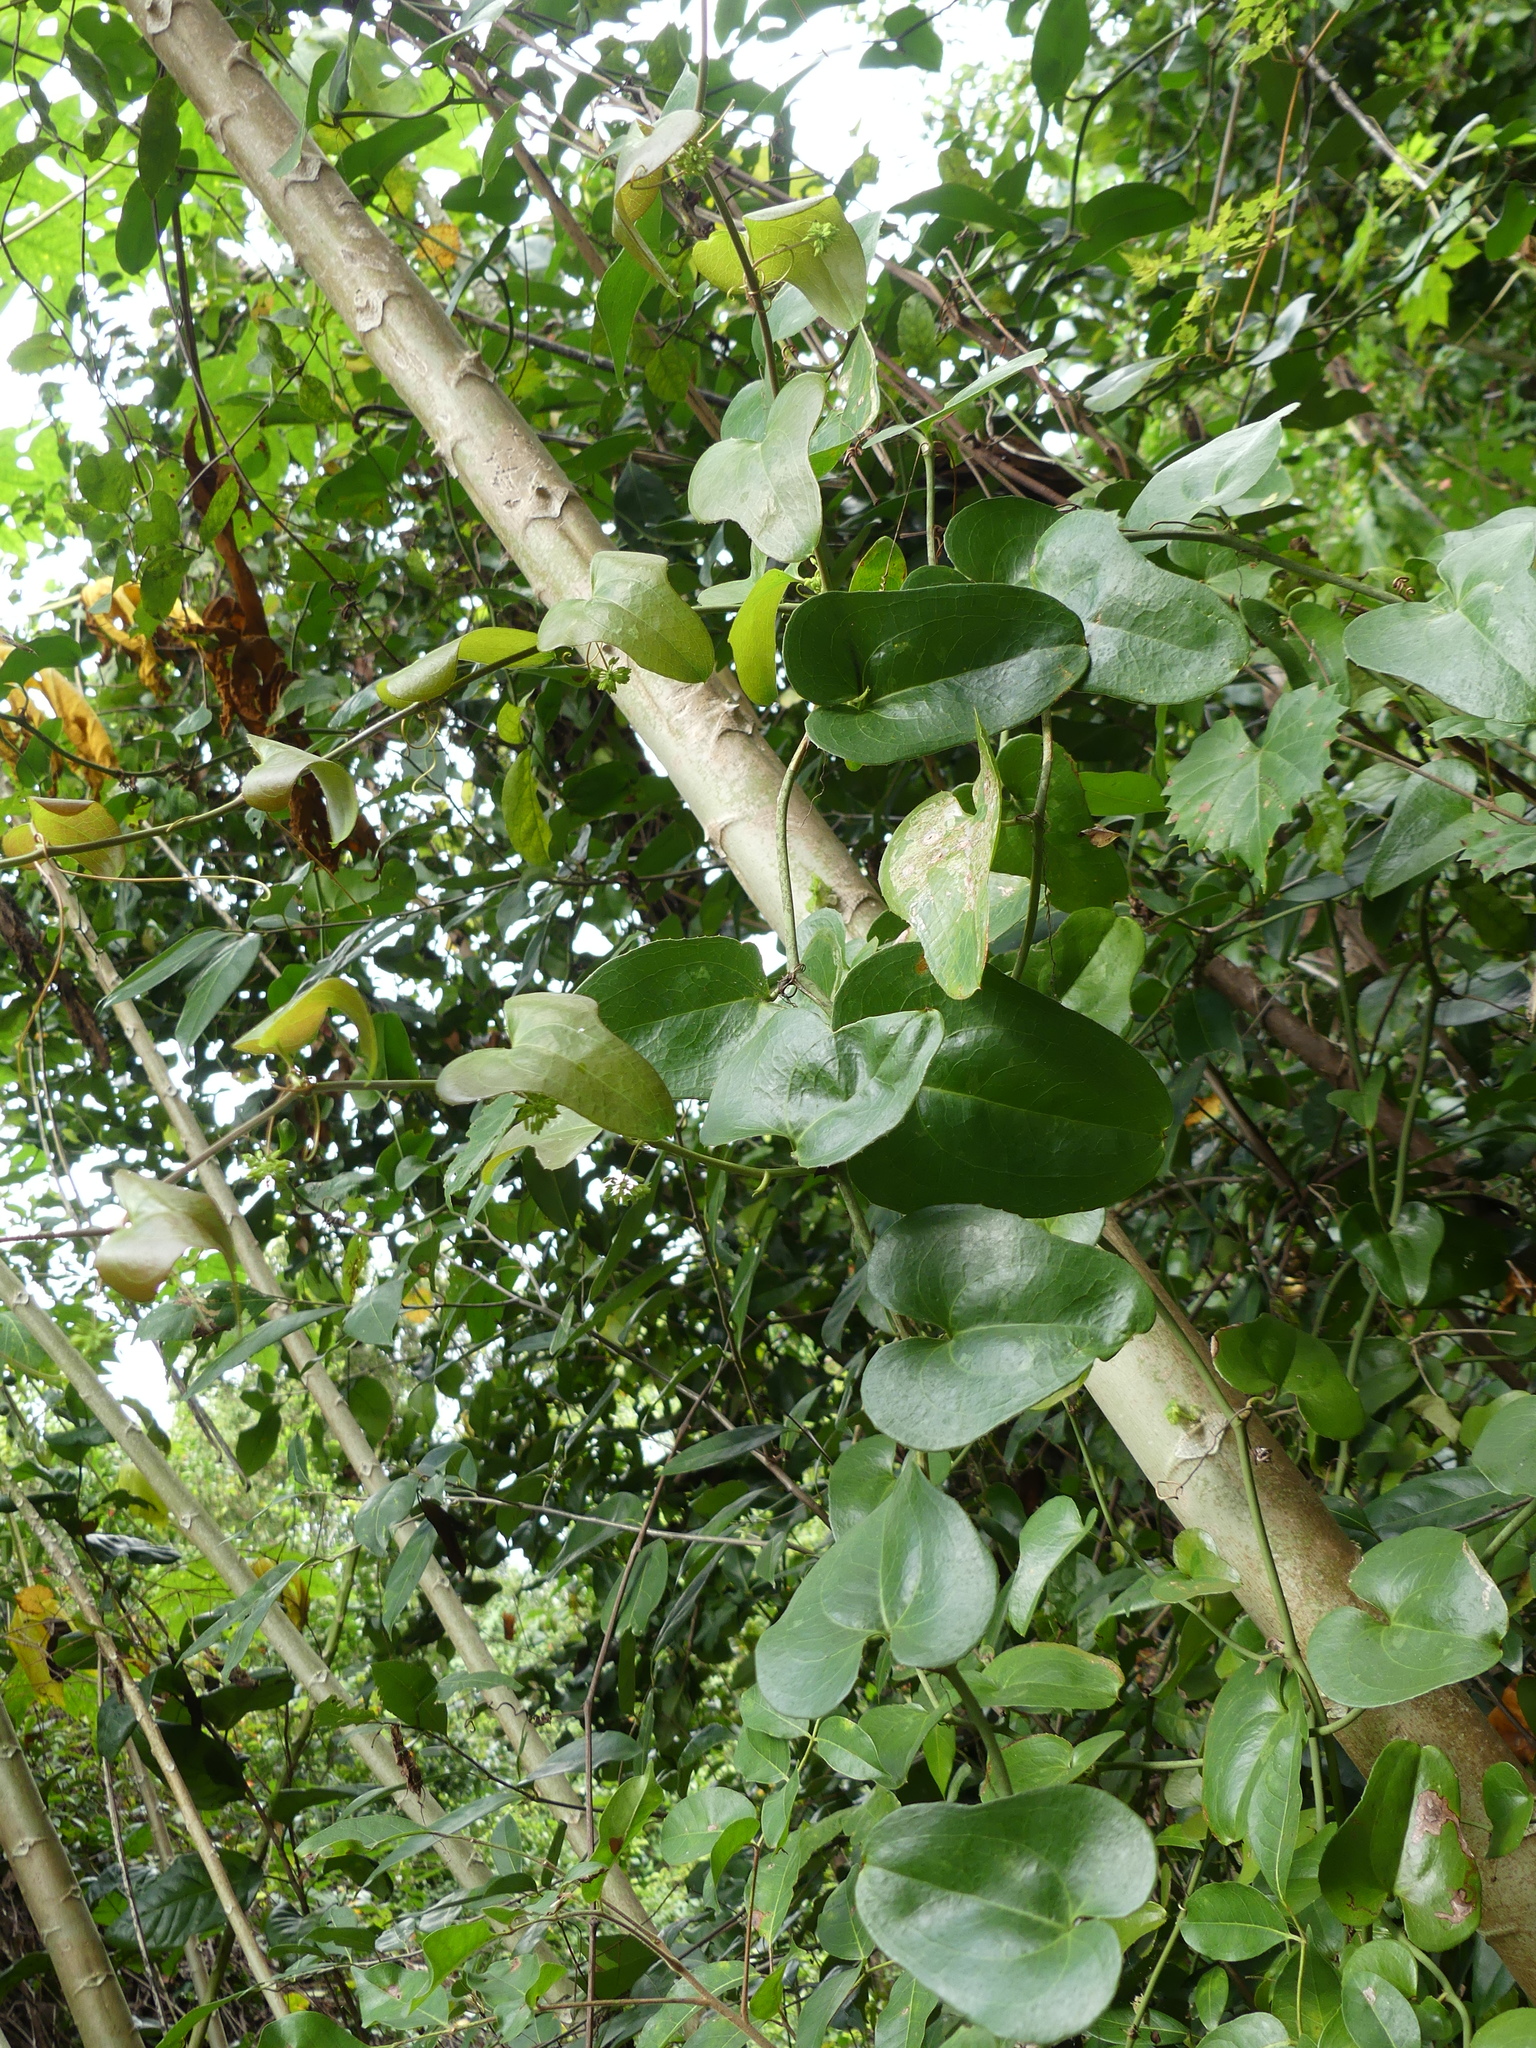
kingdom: Plantae
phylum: Tracheophyta
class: Liliopsida
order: Liliales
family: Smilacaceae
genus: Smilax
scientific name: Smilax bona-nox
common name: Catbrier
